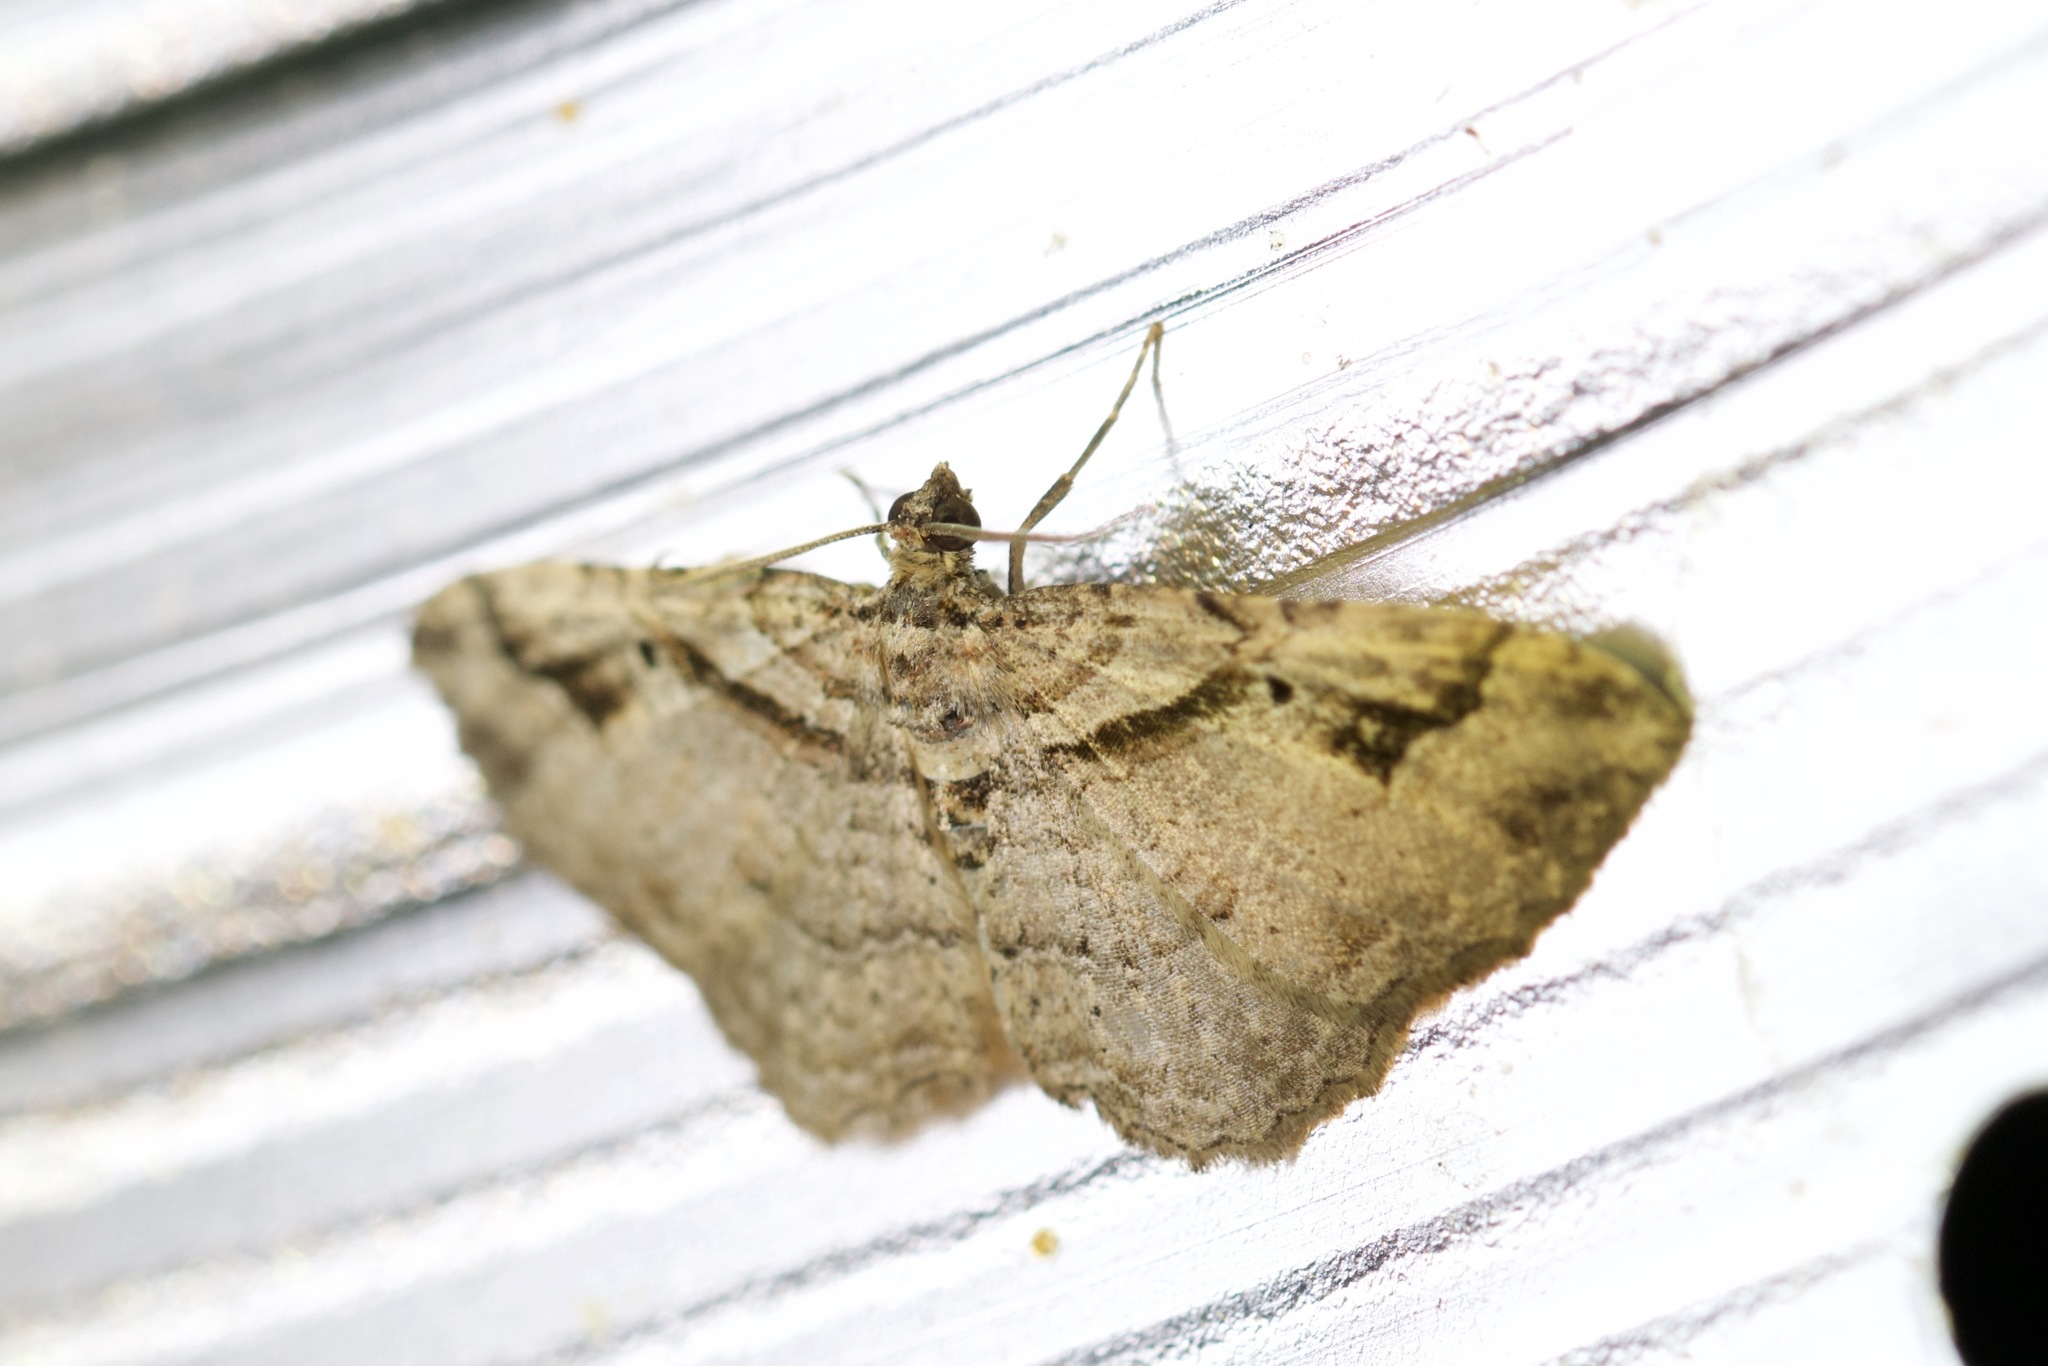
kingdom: Animalia
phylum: Arthropoda
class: Insecta
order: Lepidoptera
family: Geometridae
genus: Costaconvexa
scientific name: Costaconvexa centrostrigaria
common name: Bent-line carpet
